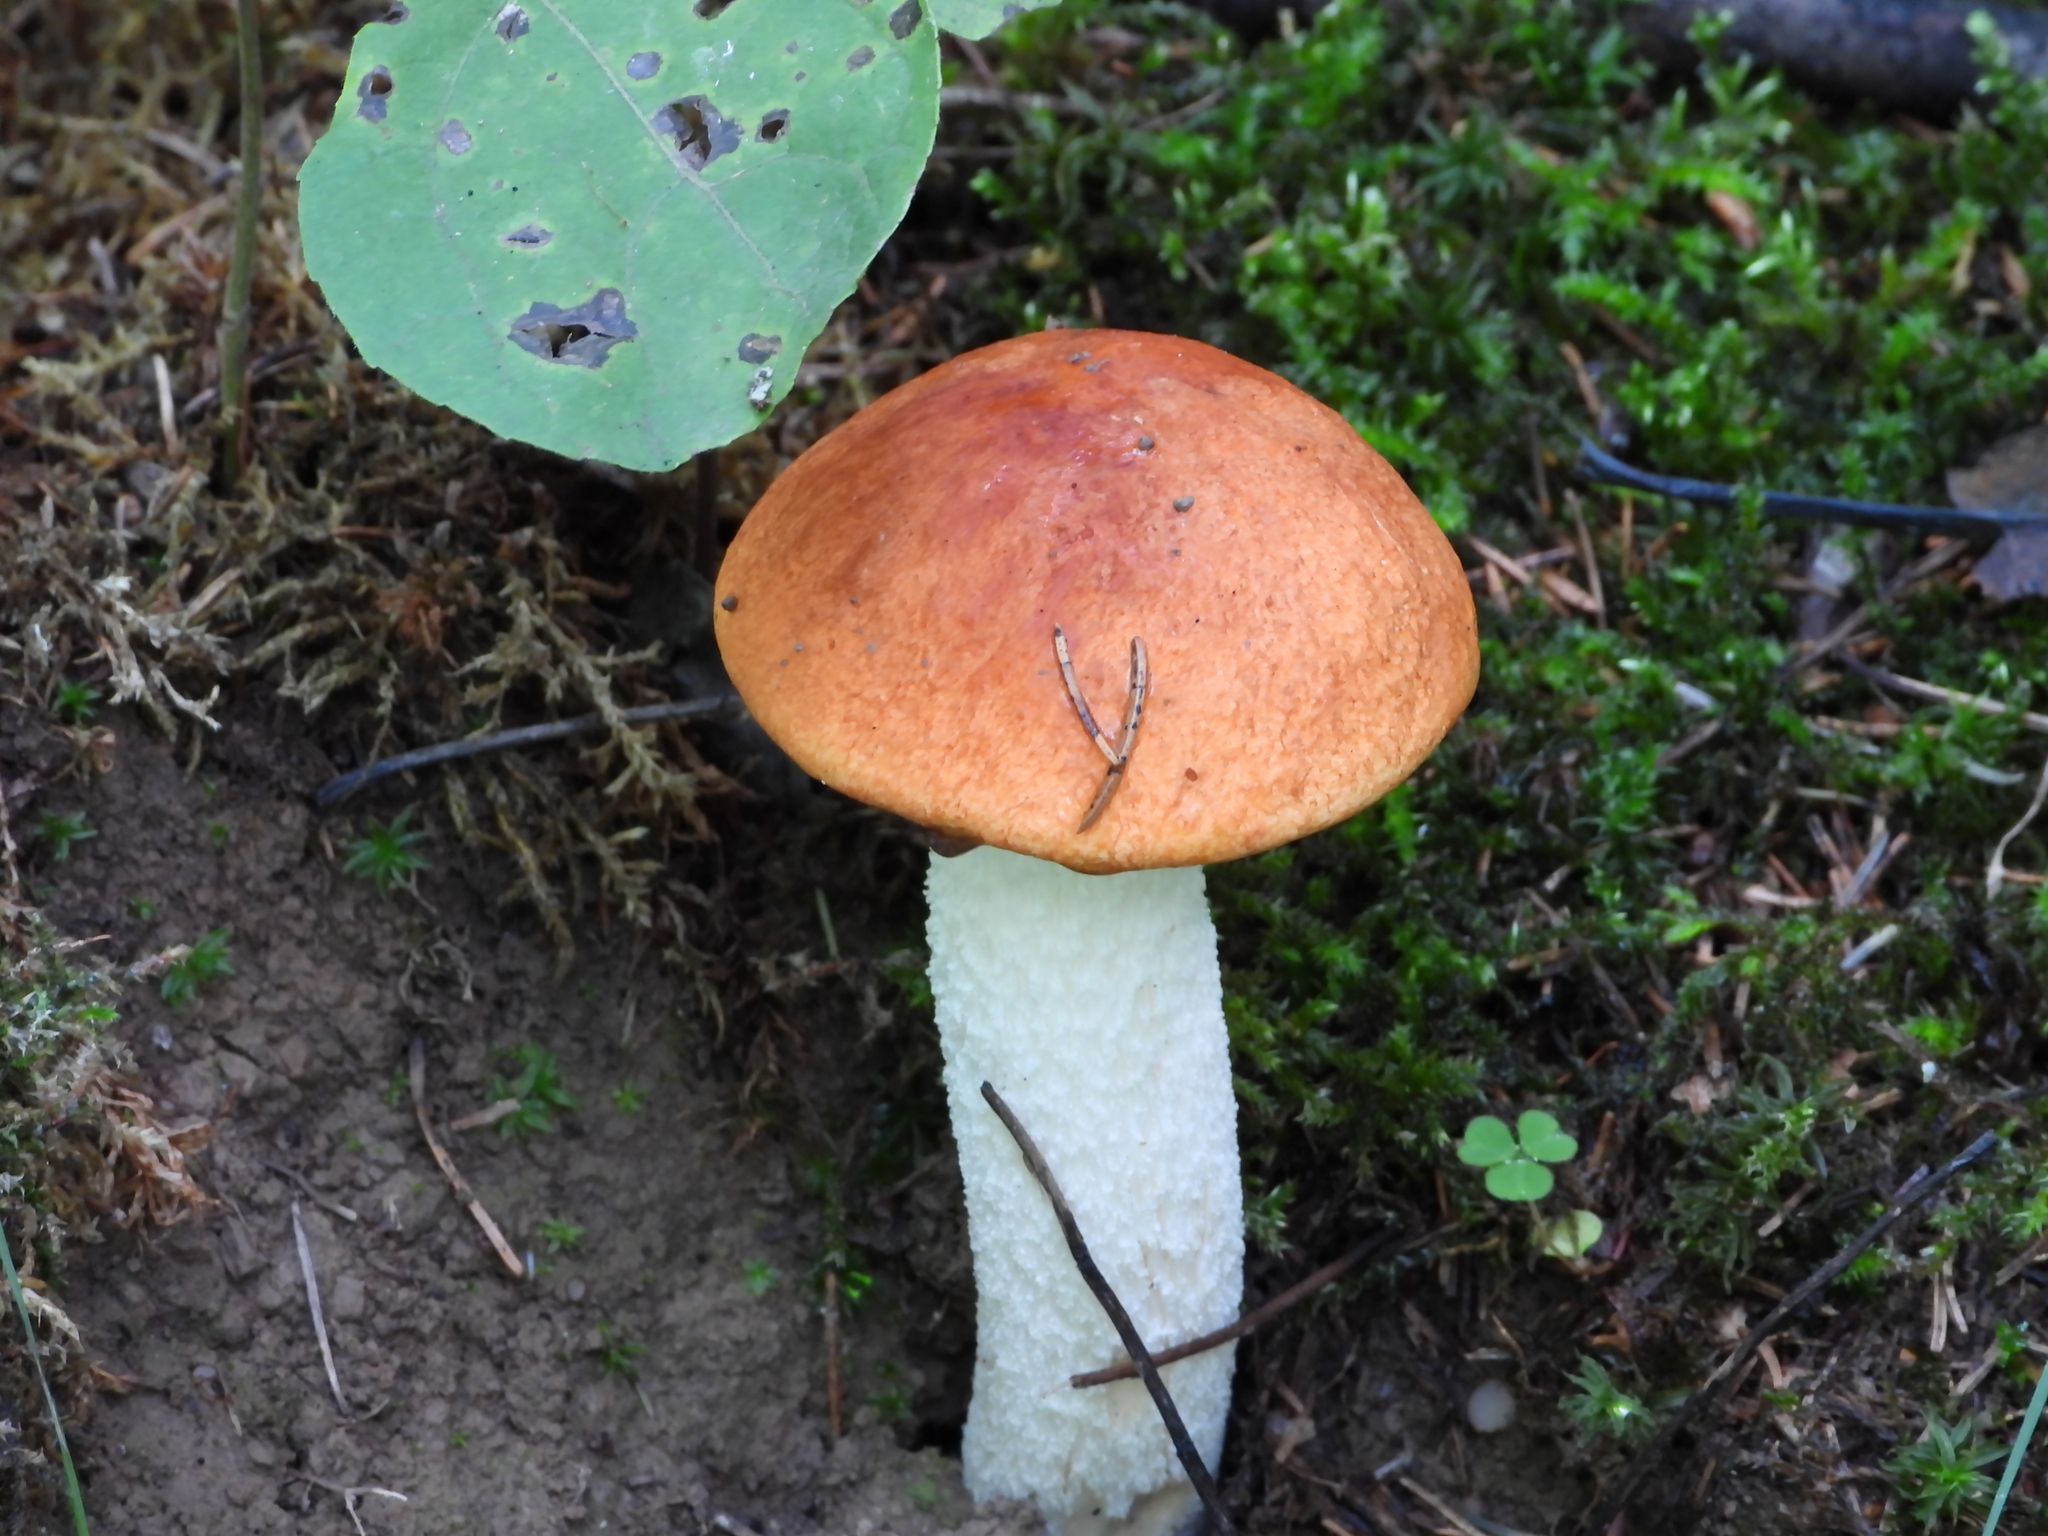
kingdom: Fungi
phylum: Basidiomycota
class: Agaricomycetes
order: Boletales
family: Boletaceae
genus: Leccinum
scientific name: Leccinum albostipitatum
